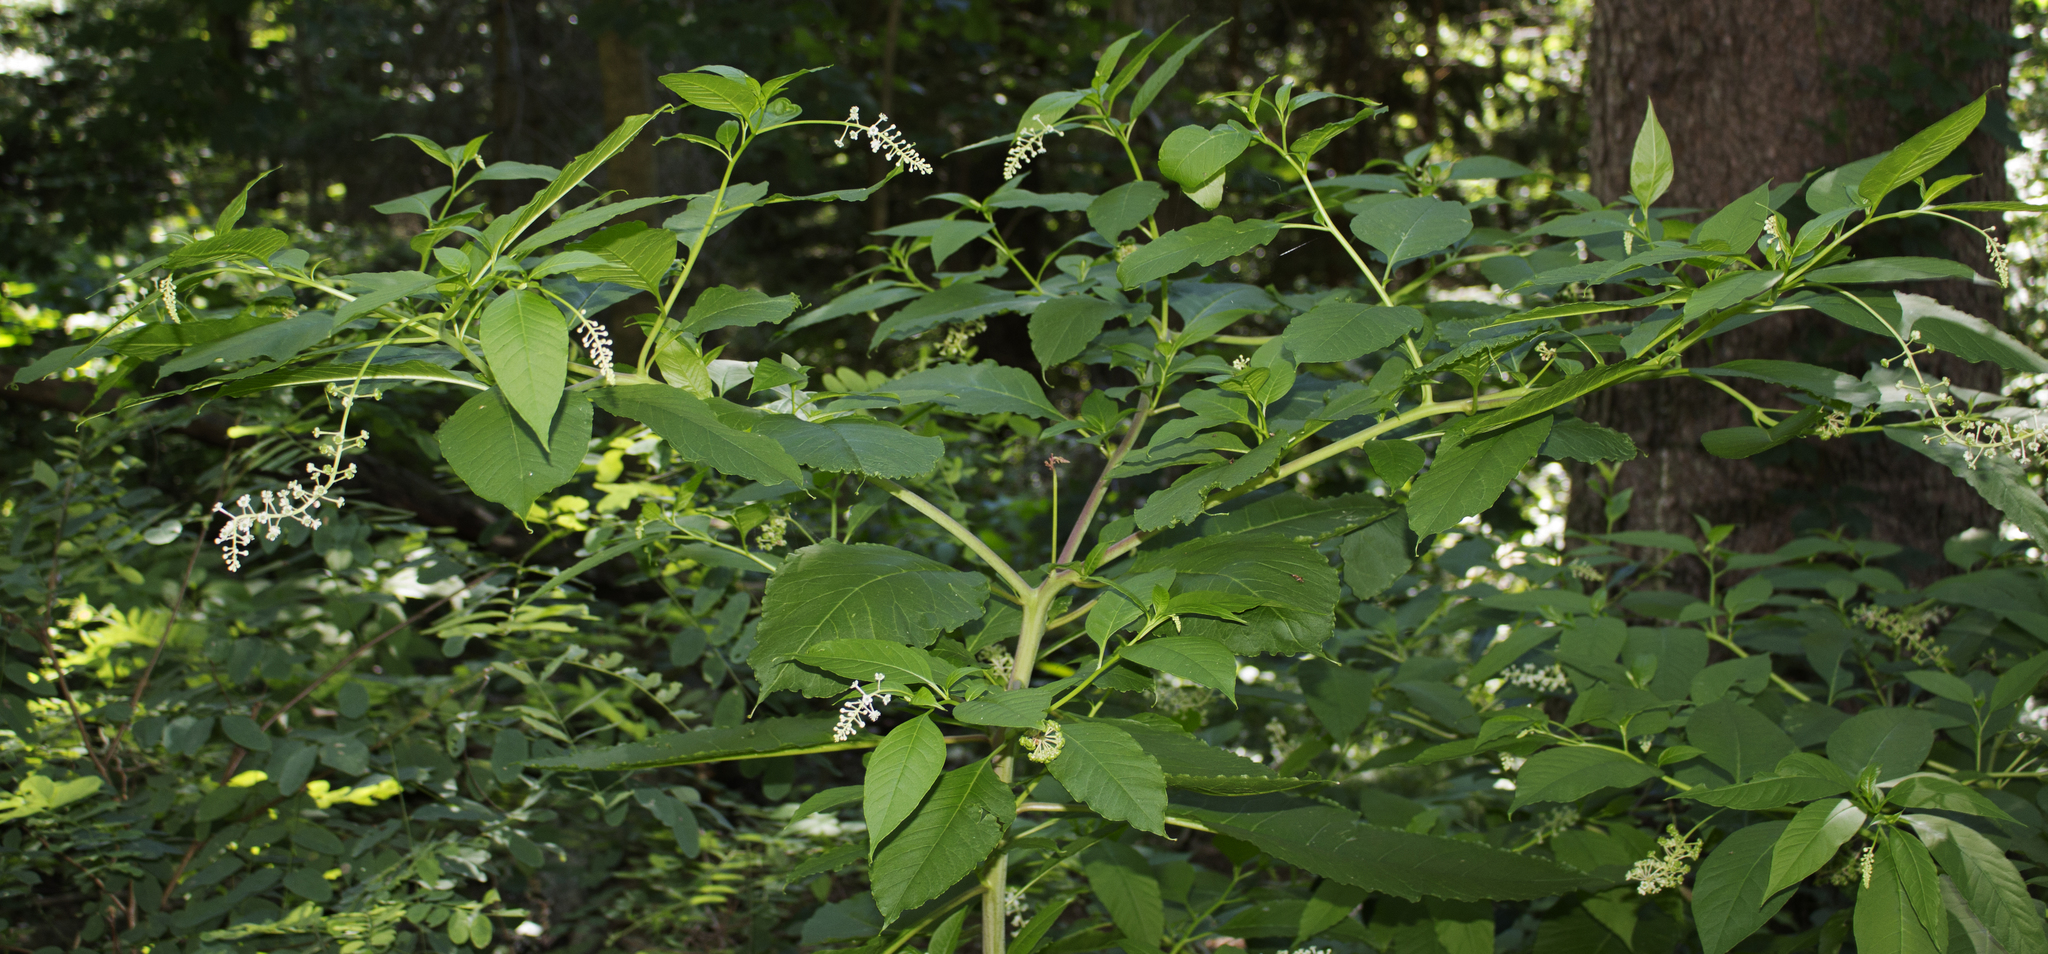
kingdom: Plantae
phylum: Tracheophyta
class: Magnoliopsida
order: Caryophyllales
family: Phytolaccaceae
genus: Phytolacca
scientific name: Phytolacca americana
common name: American pokeweed
